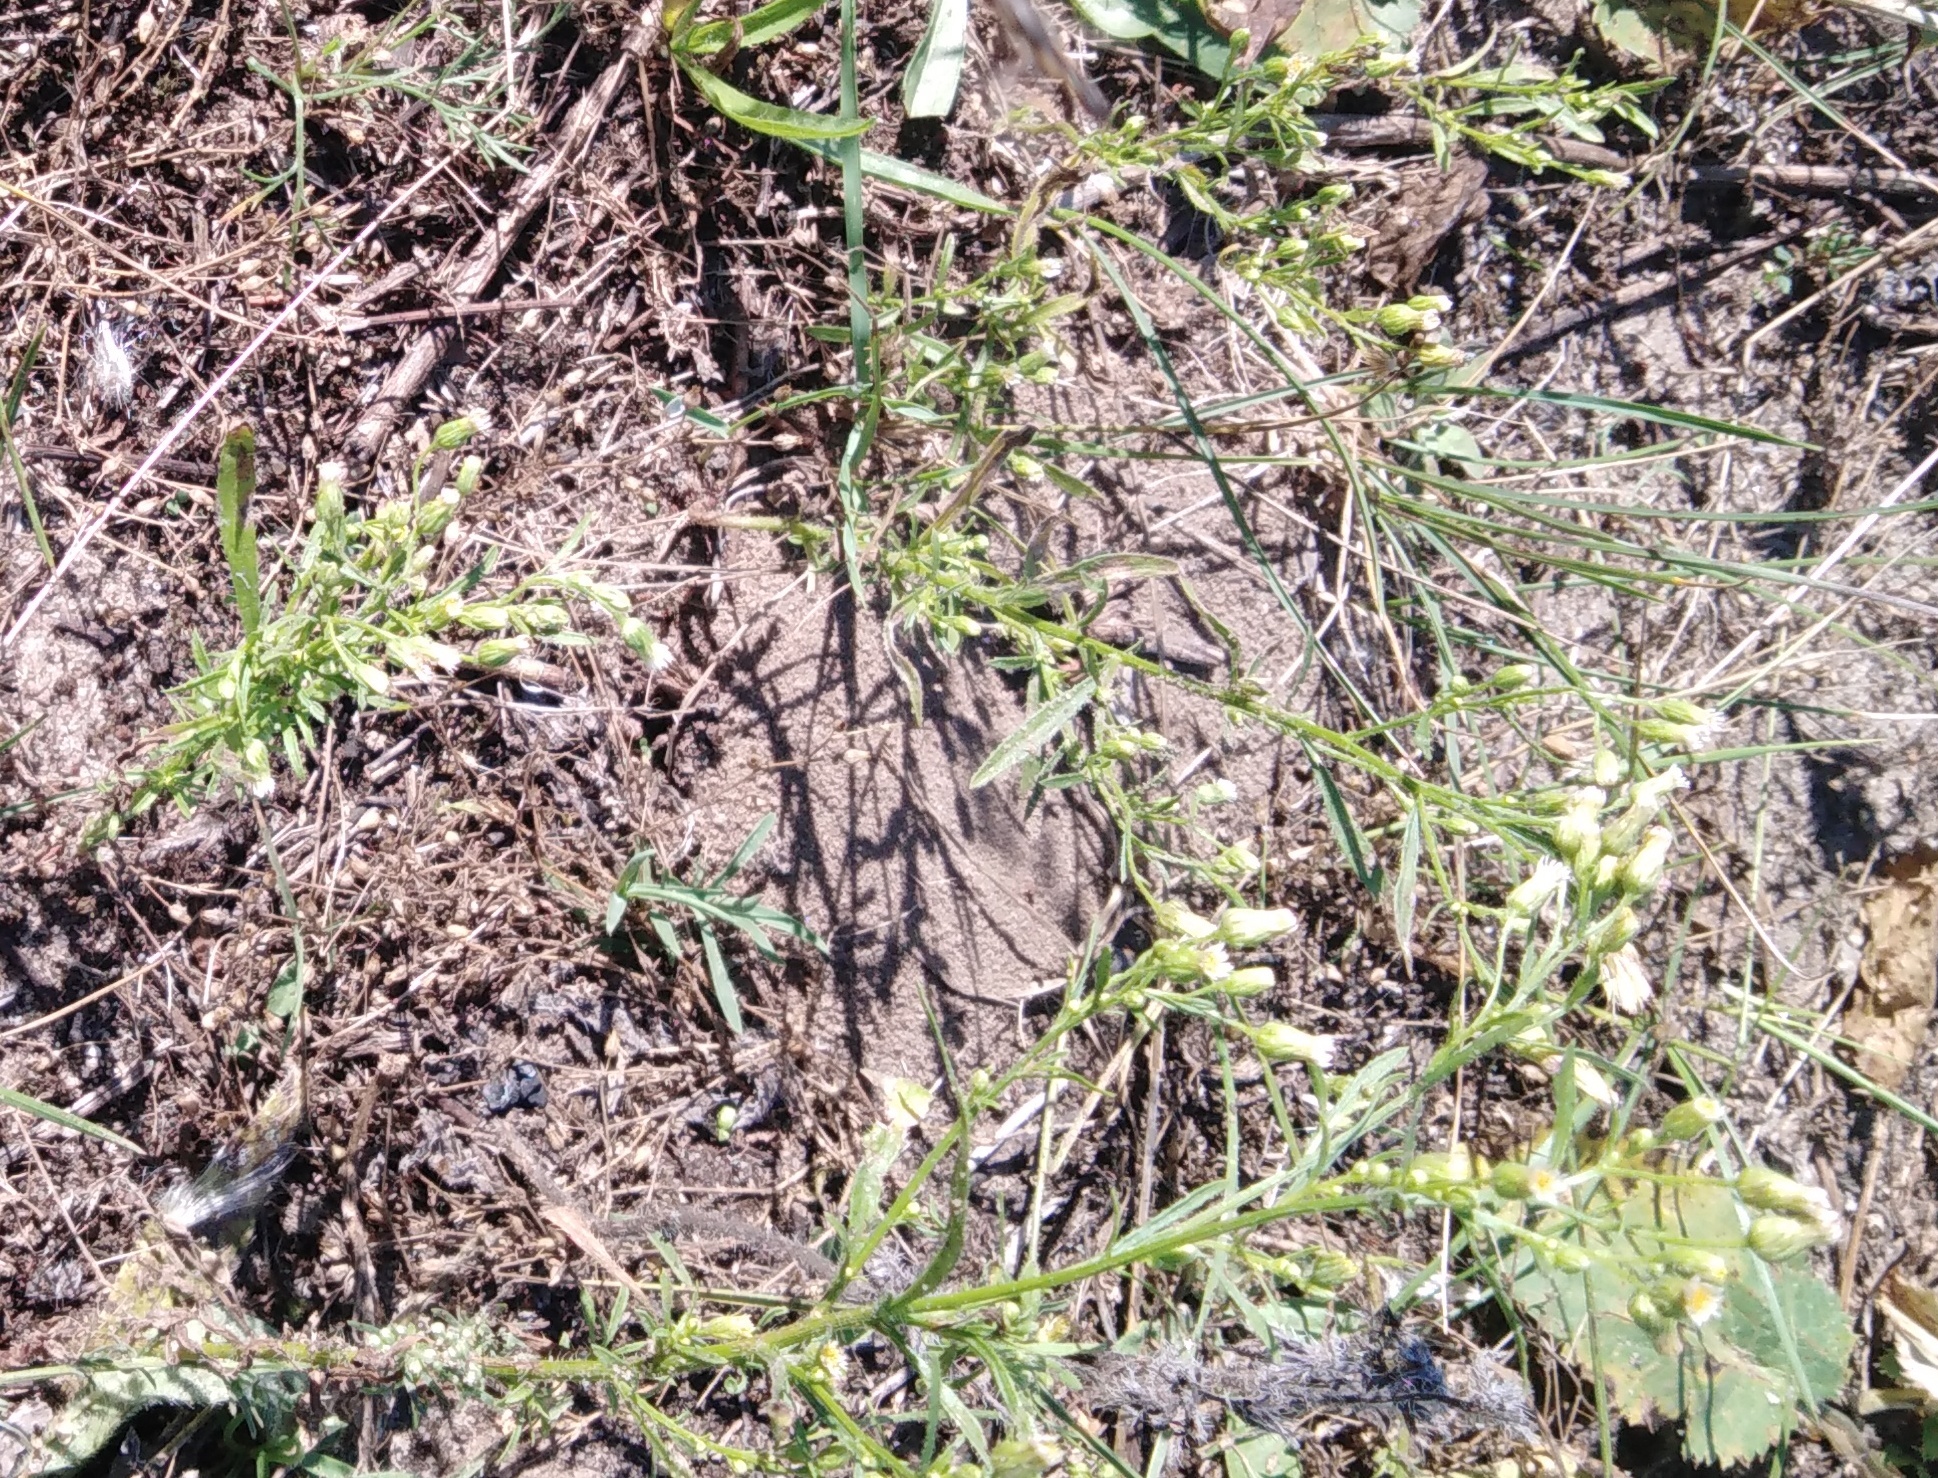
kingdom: Plantae
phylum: Tracheophyta
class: Magnoliopsida
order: Asterales
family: Asteraceae
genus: Erigeron
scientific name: Erigeron canadensis
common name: Canadian fleabane
